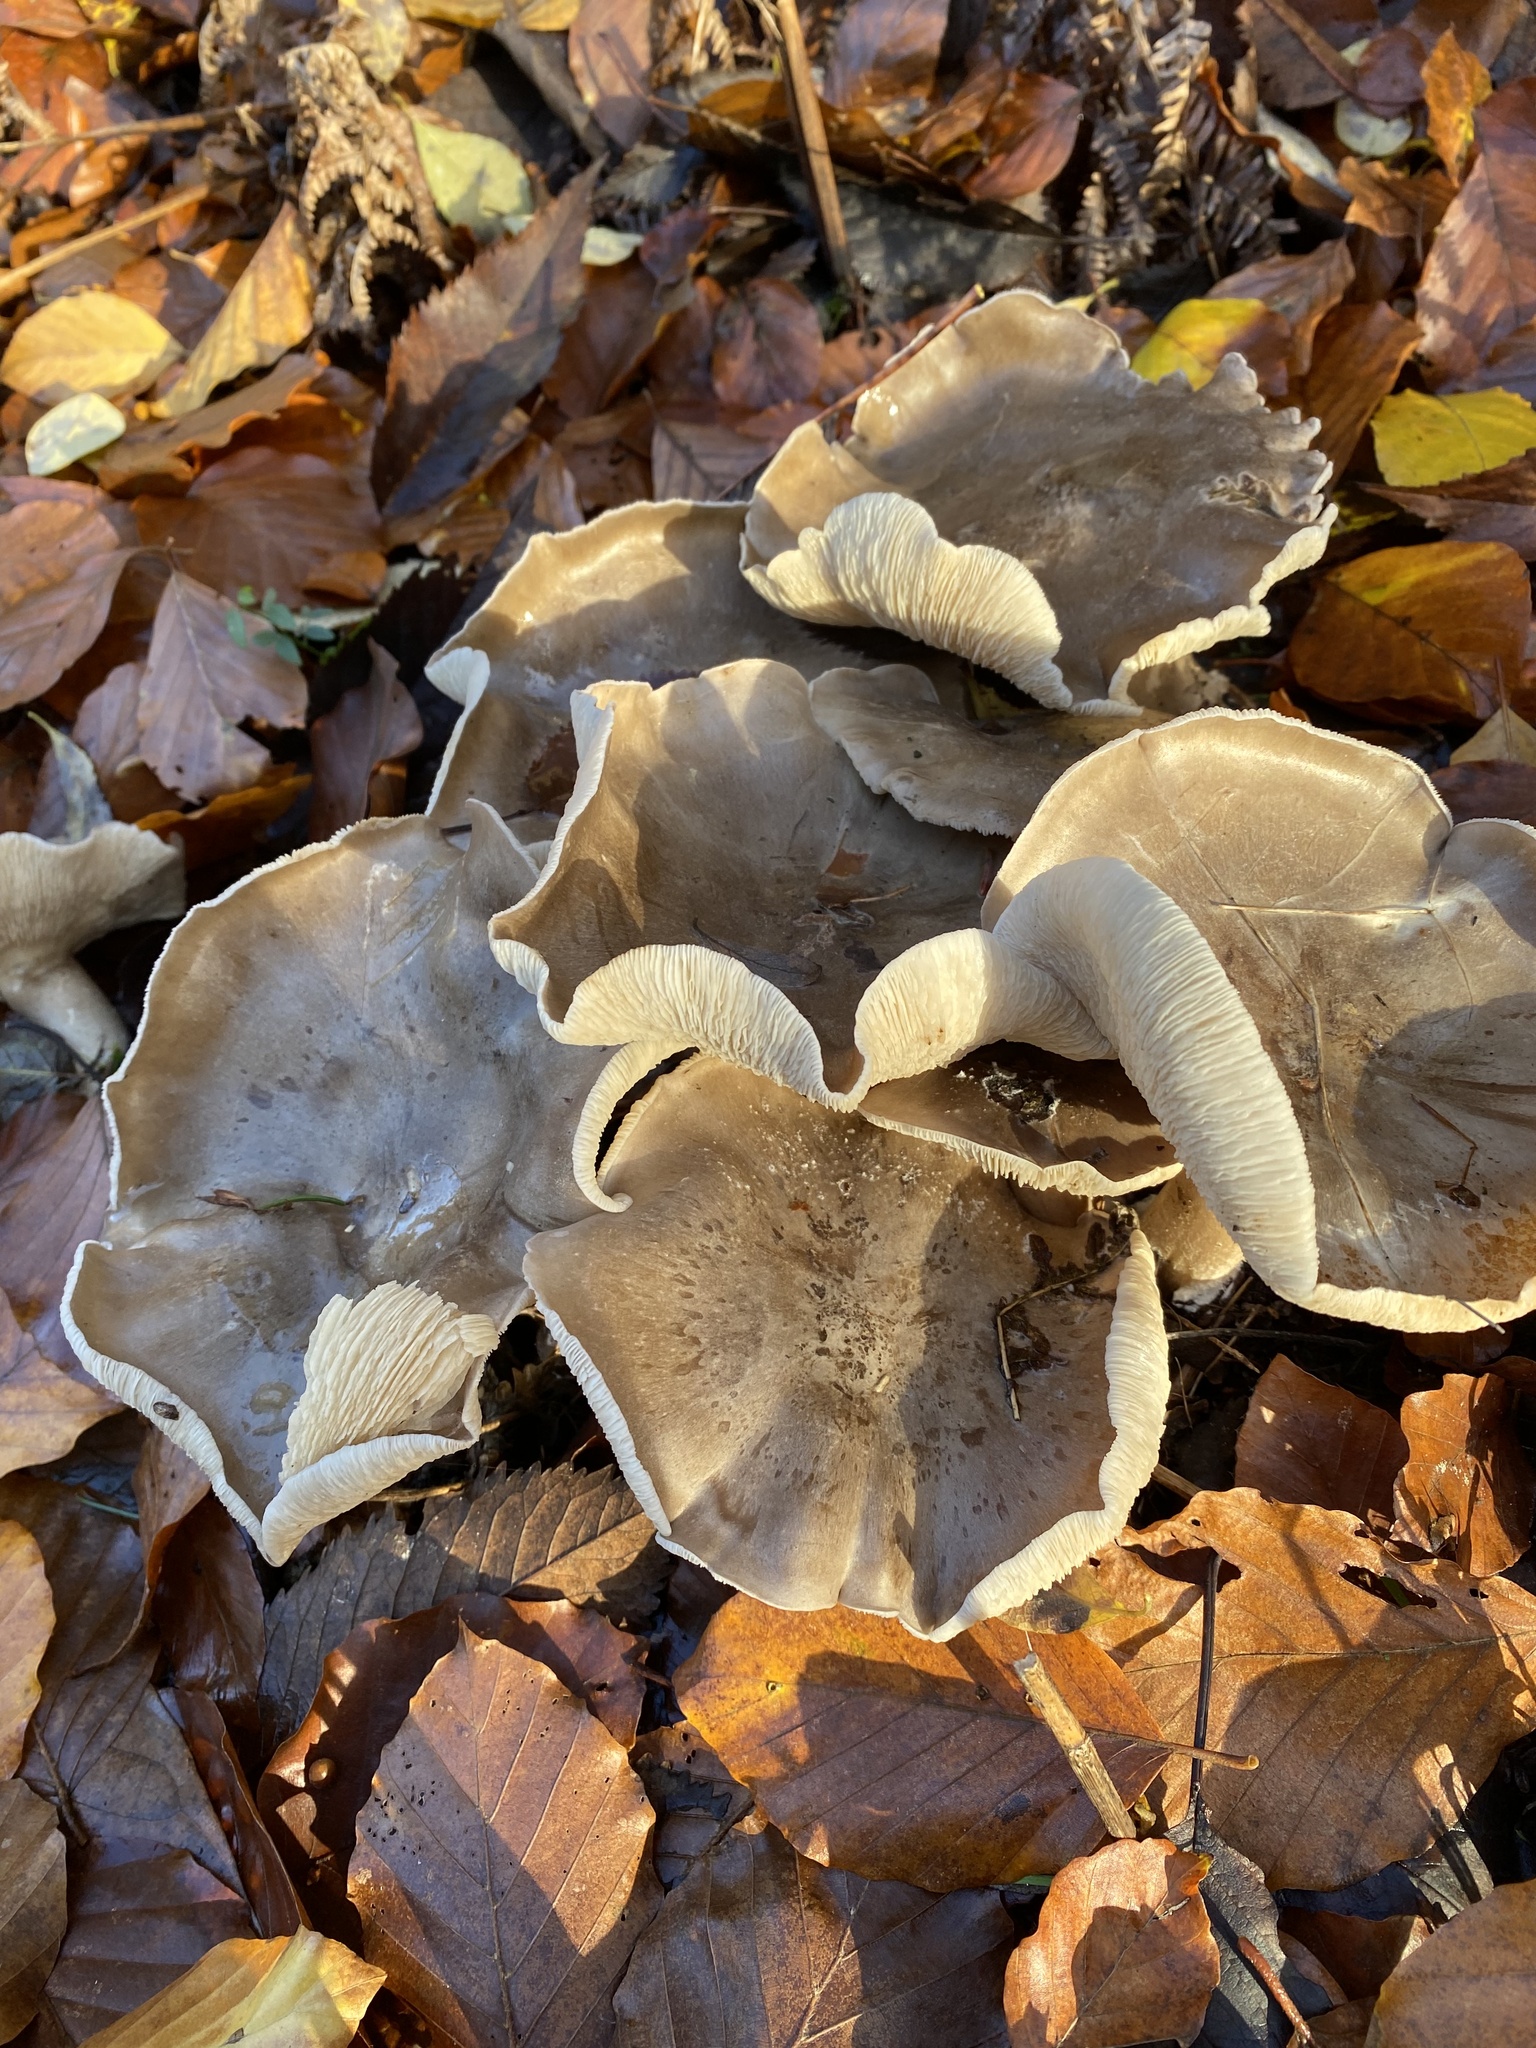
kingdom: Fungi
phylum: Basidiomycota
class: Agaricomycetes
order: Agaricales
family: Tricholomataceae
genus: Clitocybe
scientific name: Clitocybe nebularis
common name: Clouded agaric
